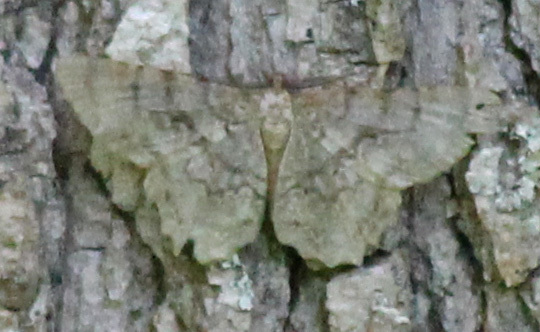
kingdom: Animalia
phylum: Arthropoda
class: Insecta
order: Lepidoptera
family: Geometridae
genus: Epimecis
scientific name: Epimecis hortaria
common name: Tulip-tree beauty
